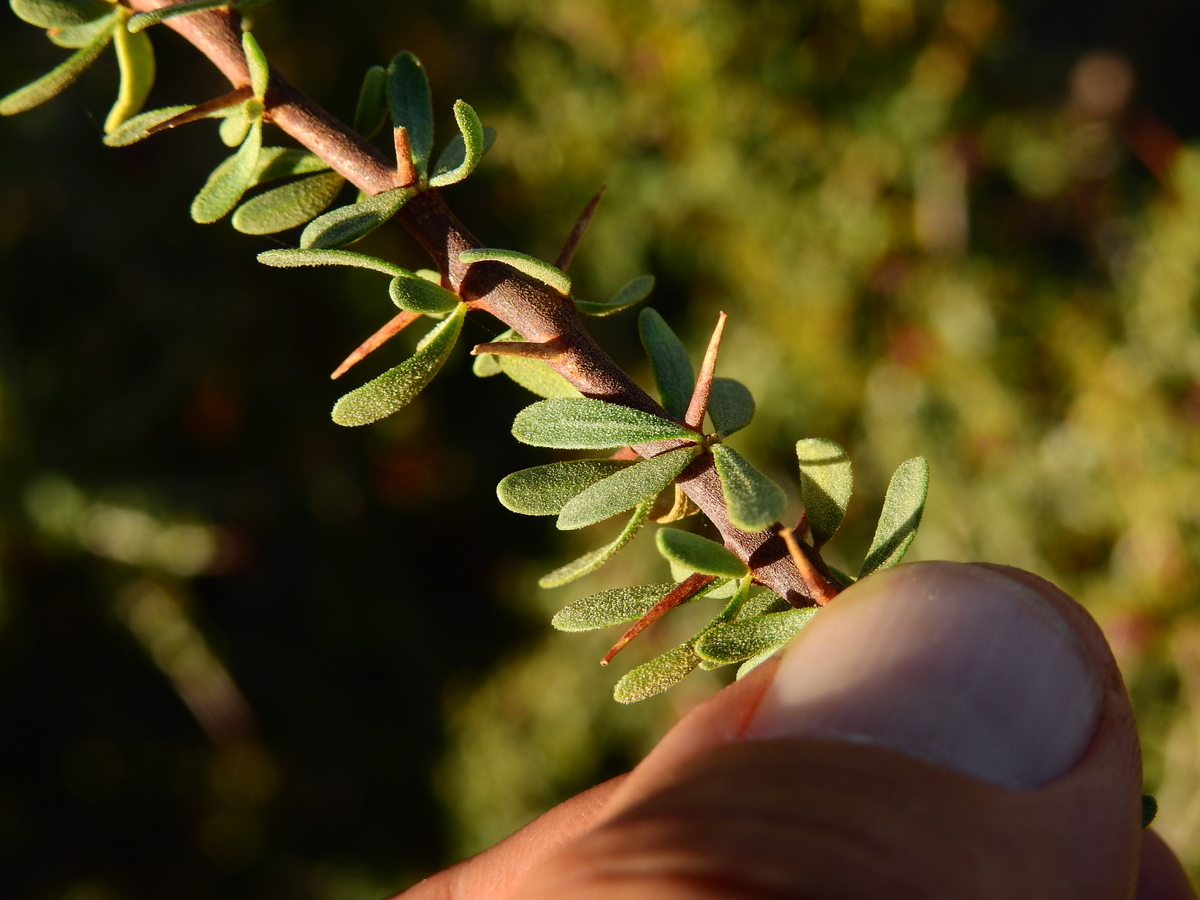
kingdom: Plantae
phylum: Tracheophyta
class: Magnoliopsida
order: Caryophyllales
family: Nyctaginaceae
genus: Bougainvillea
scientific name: Bougainvillea spinosa
